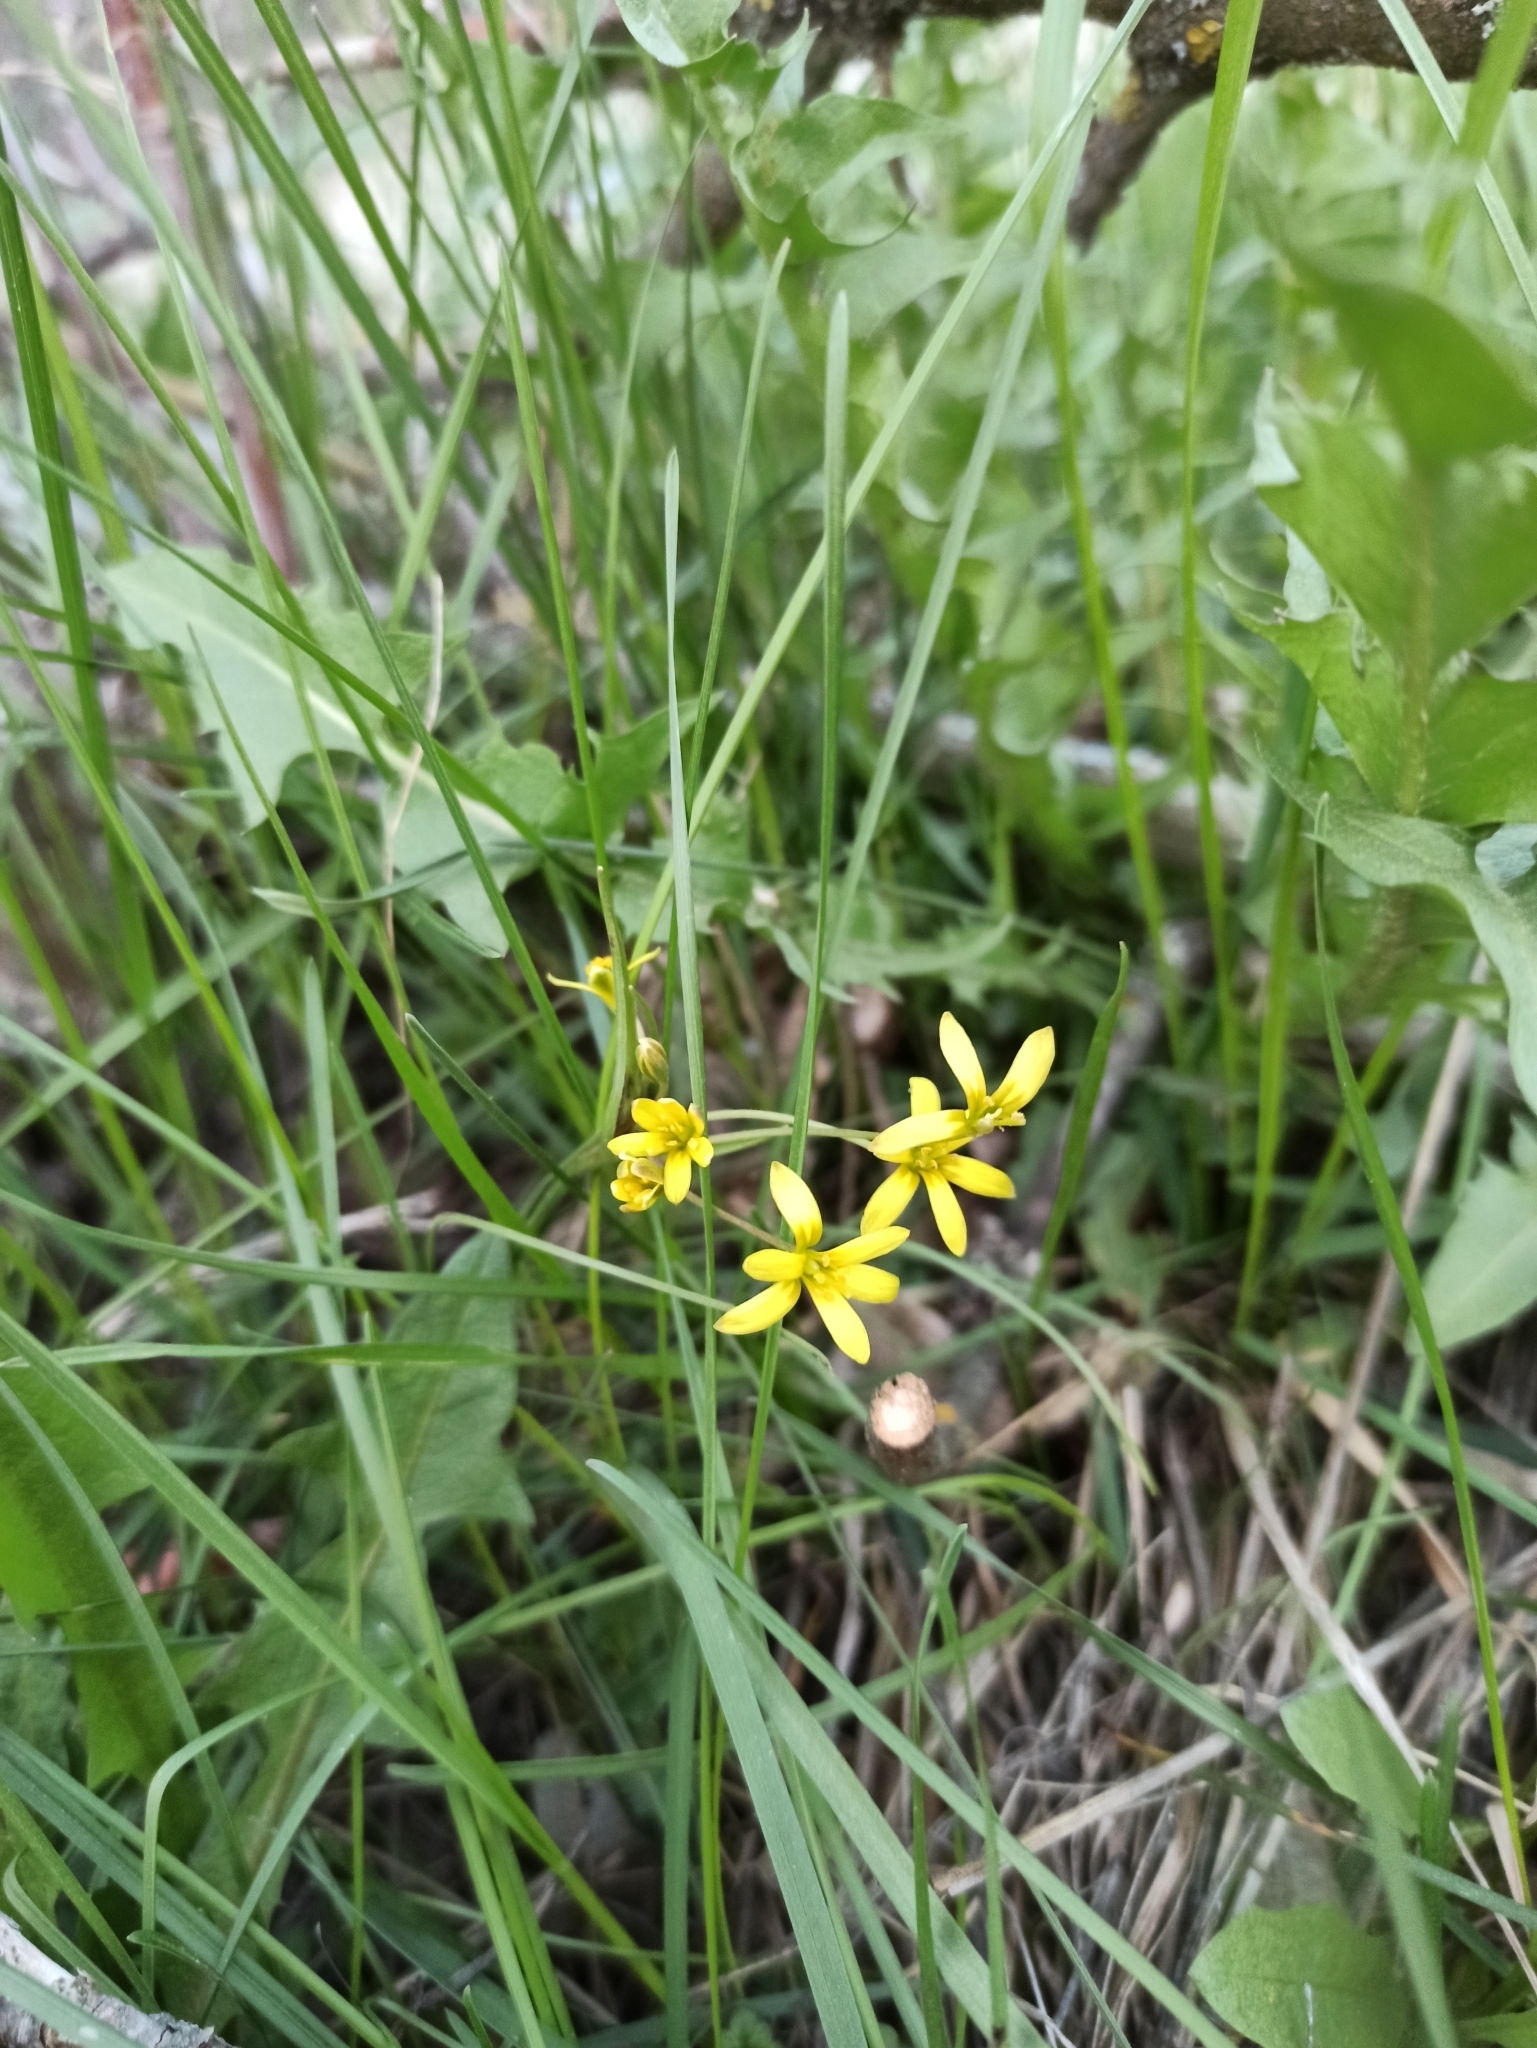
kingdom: Plantae
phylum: Tracheophyta
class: Liliopsida
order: Liliales
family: Liliaceae
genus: Gagea
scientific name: Gagea fragifera
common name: Lily
